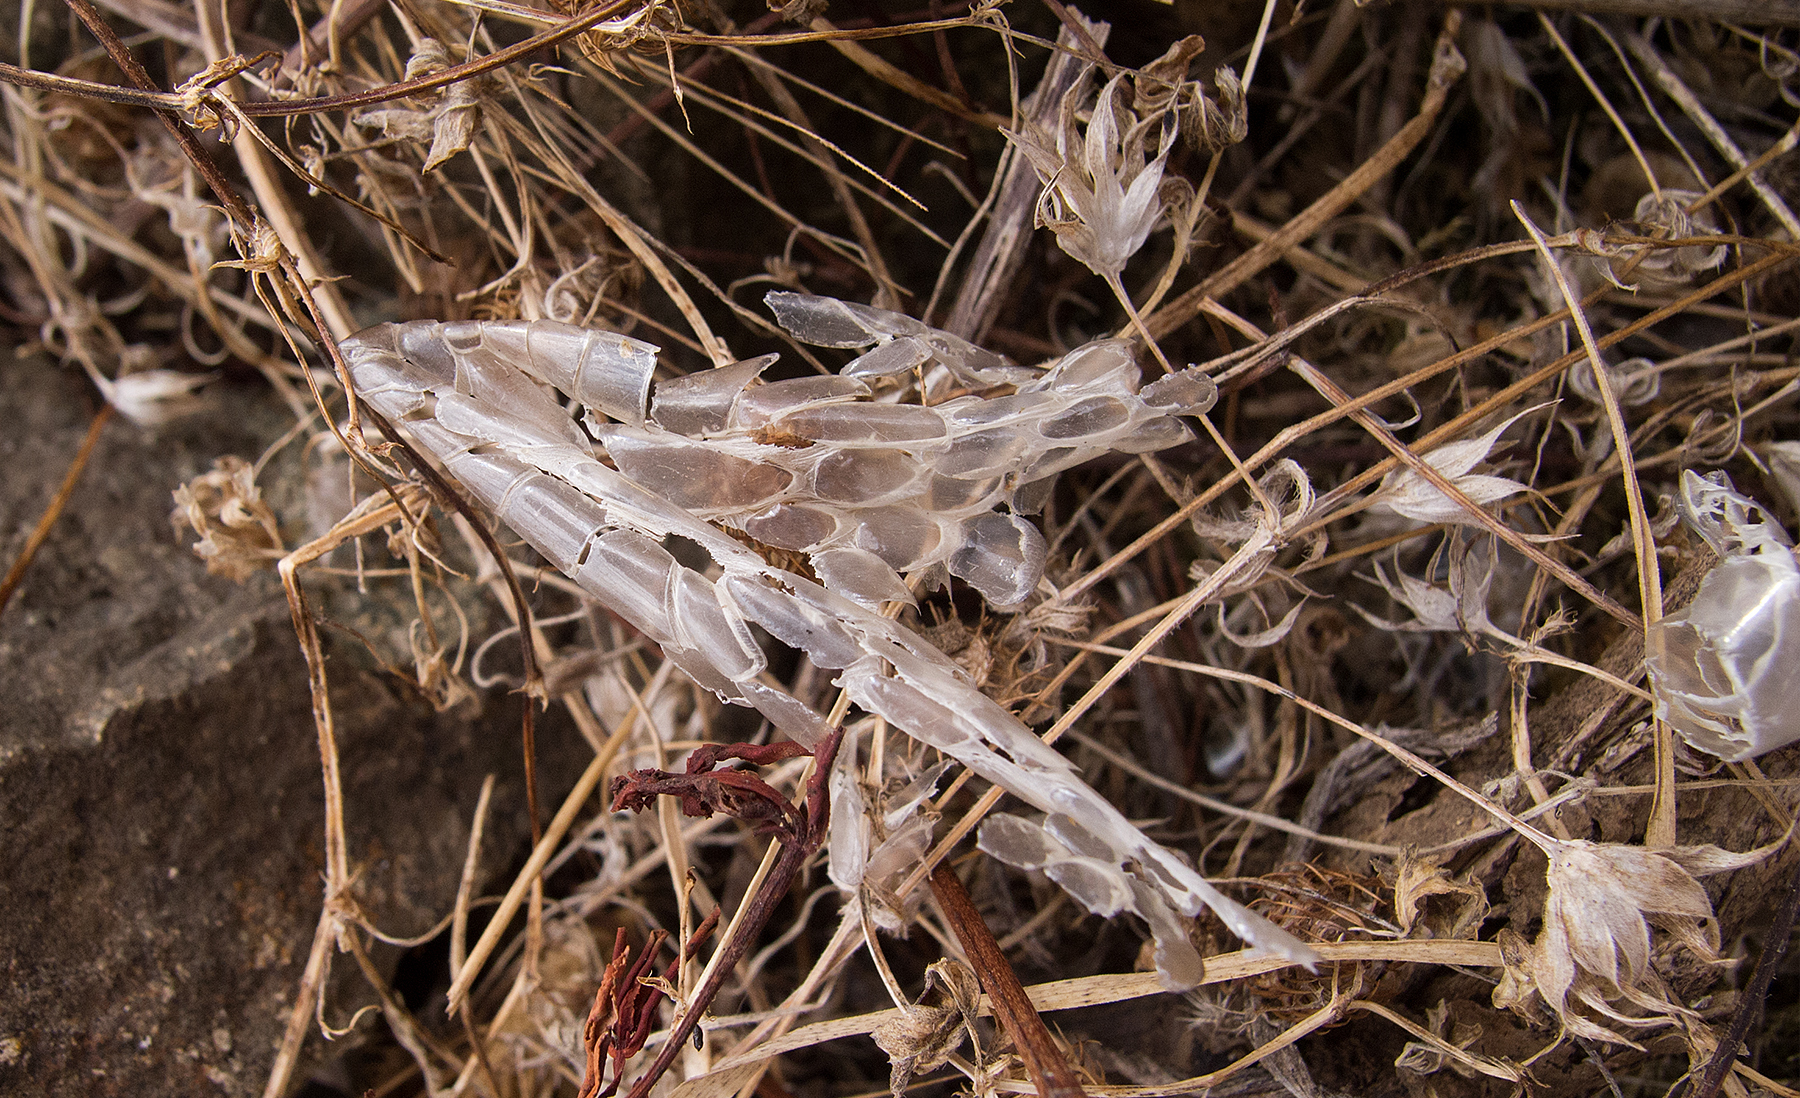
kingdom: Animalia
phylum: Chordata
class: Squamata
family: Colubridae
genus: Dolichophis
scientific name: Dolichophis caspius
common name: Large whip snake
